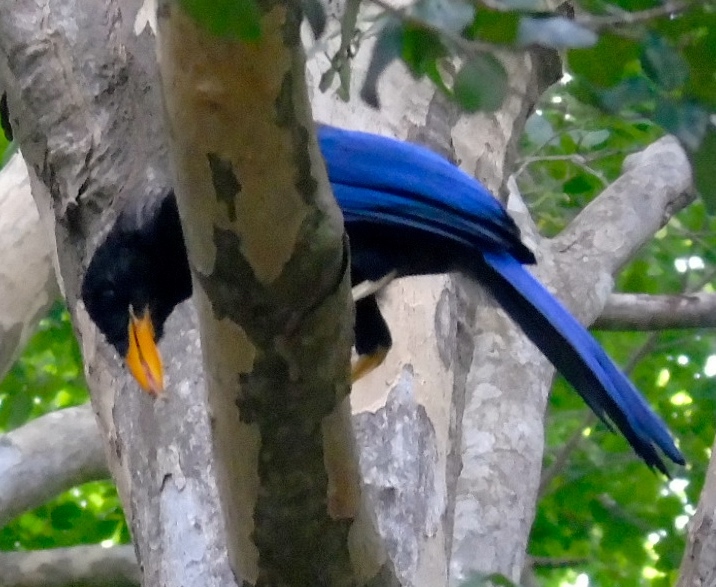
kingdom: Animalia
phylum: Chordata
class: Aves
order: Passeriformes
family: Corvidae
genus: Cyanocorax
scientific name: Cyanocorax beecheii
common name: Purplish-backed jay
